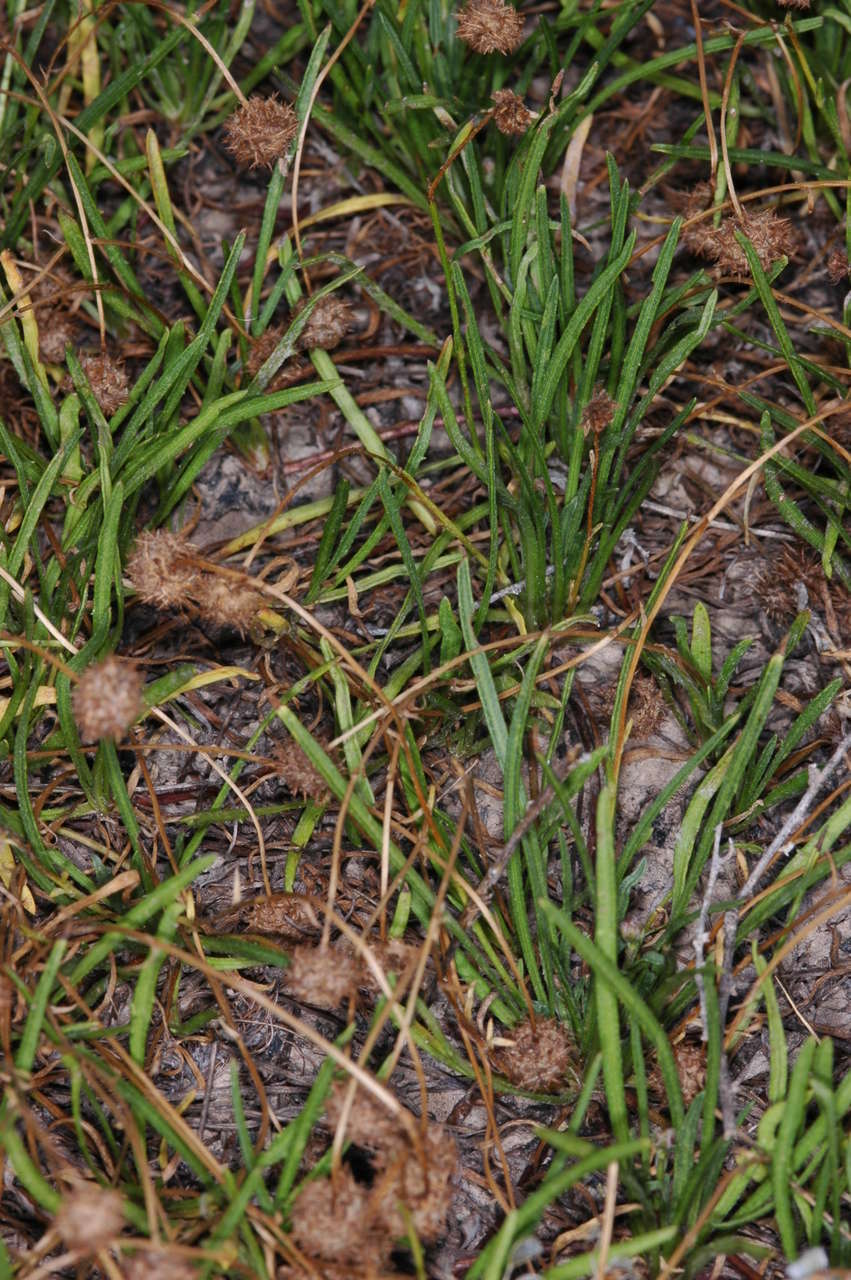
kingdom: Plantae
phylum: Tracheophyta
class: Magnoliopsida
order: Asterales
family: Asteraceae
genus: Calotis
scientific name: Calotis scapigera
